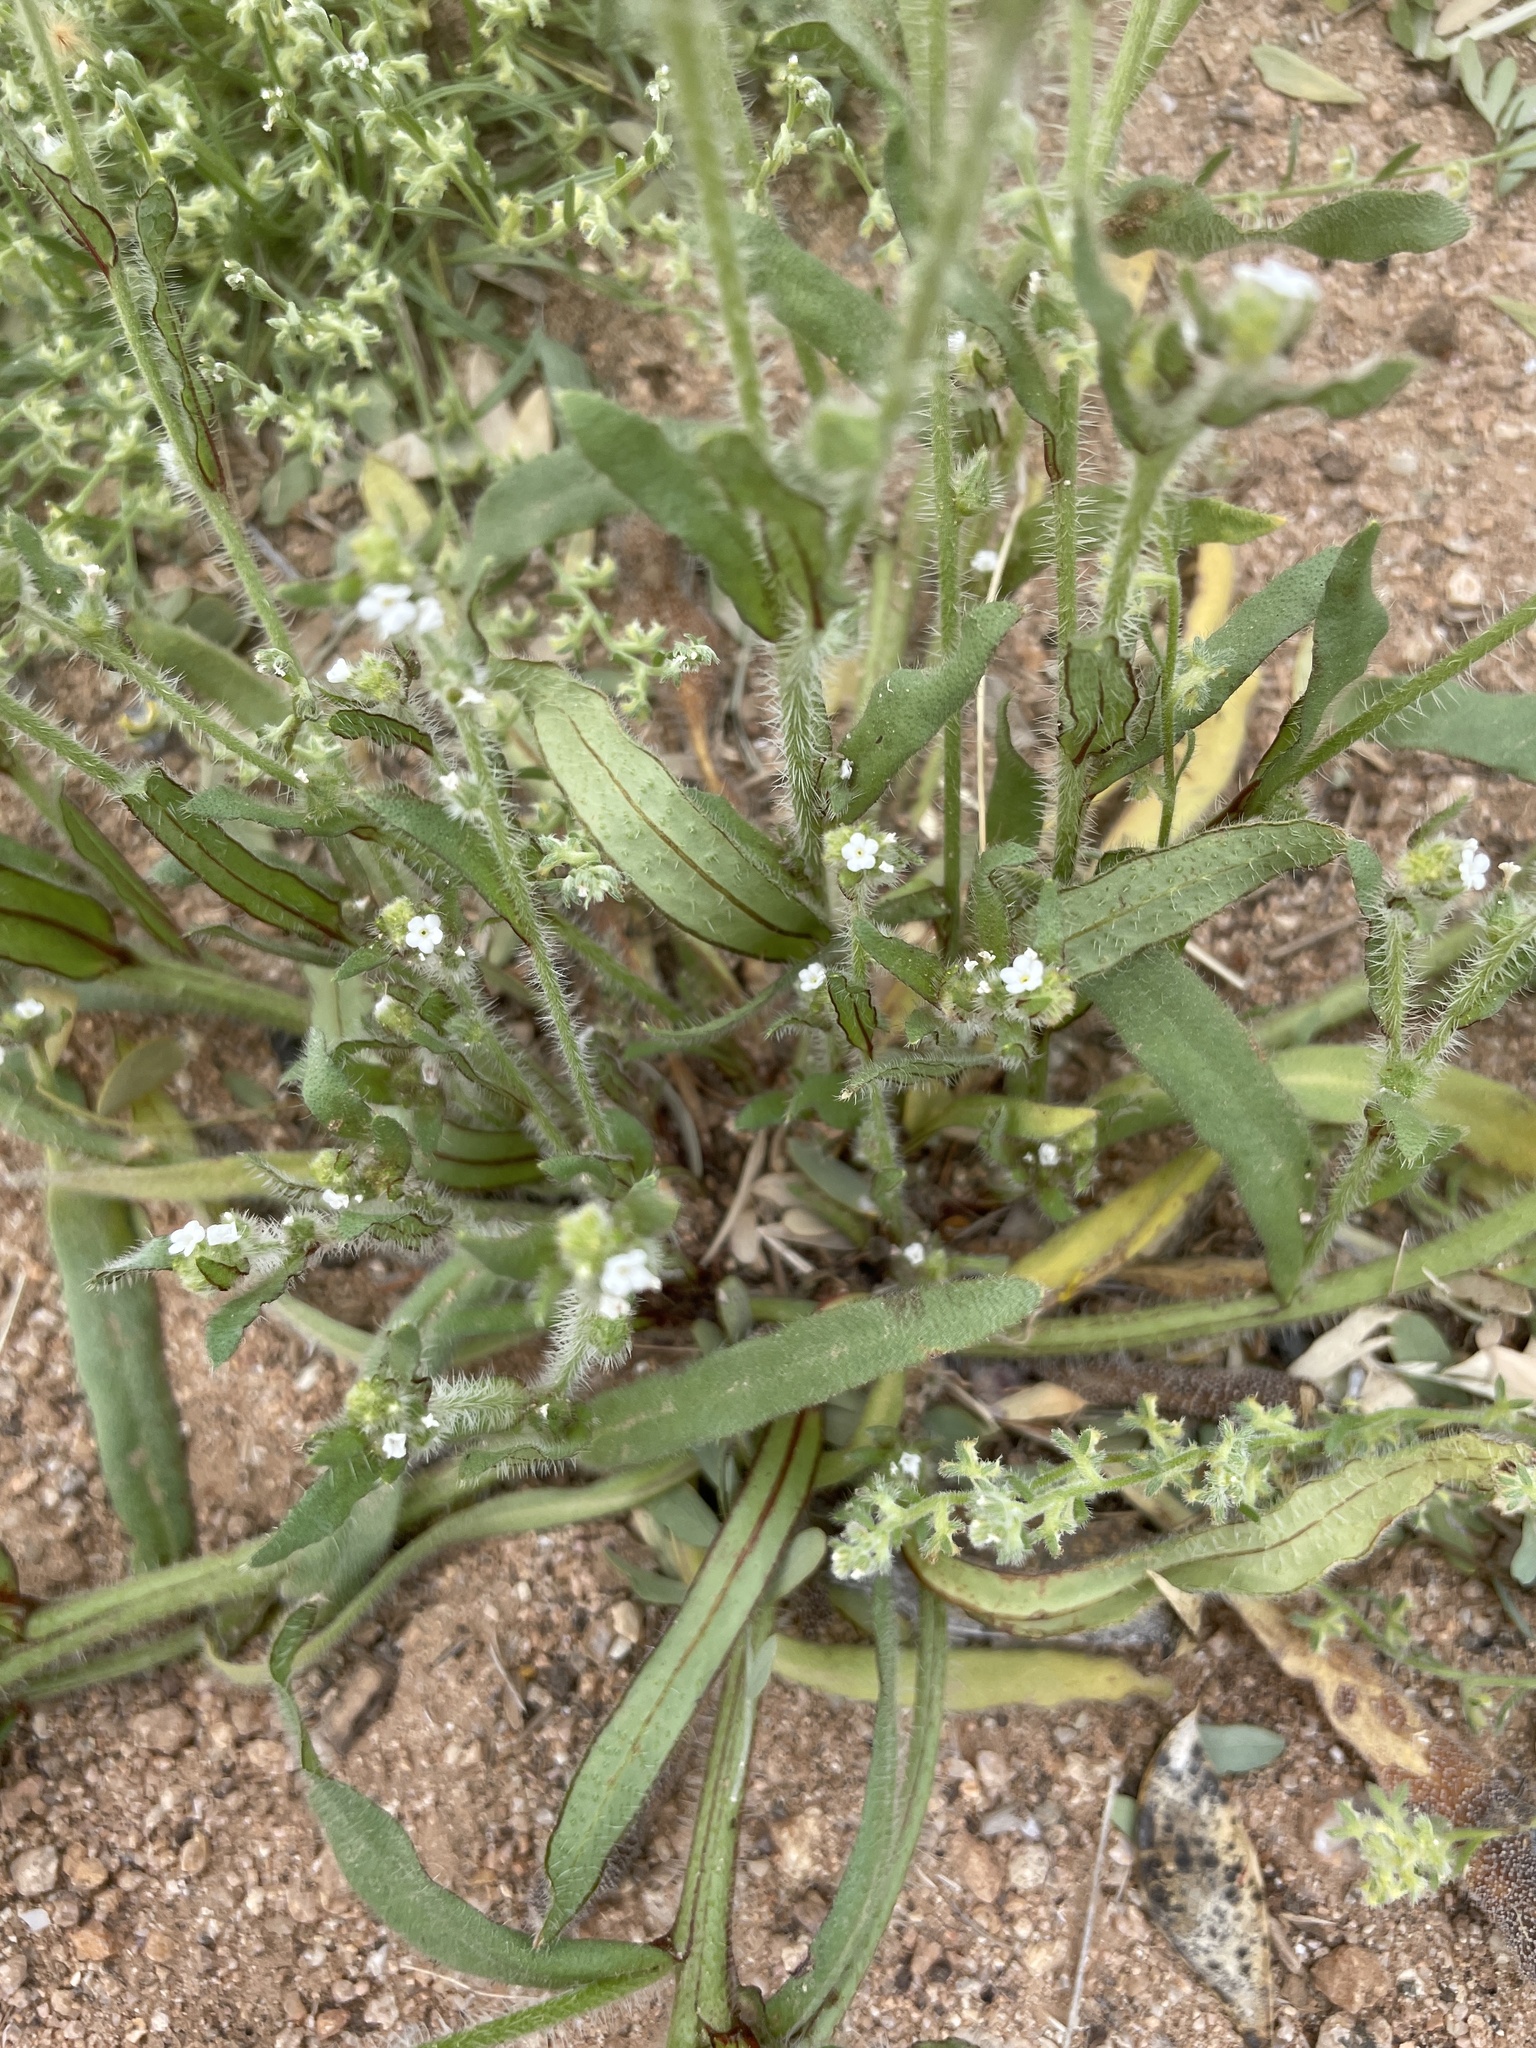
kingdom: Plantae
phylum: Tracheophyta
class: Magnoliopsida
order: Boraginales
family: Boraginaceae
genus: Plagiobothrys
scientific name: Plagiobothrys arizonicus
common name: Arizona popcorn-flower
